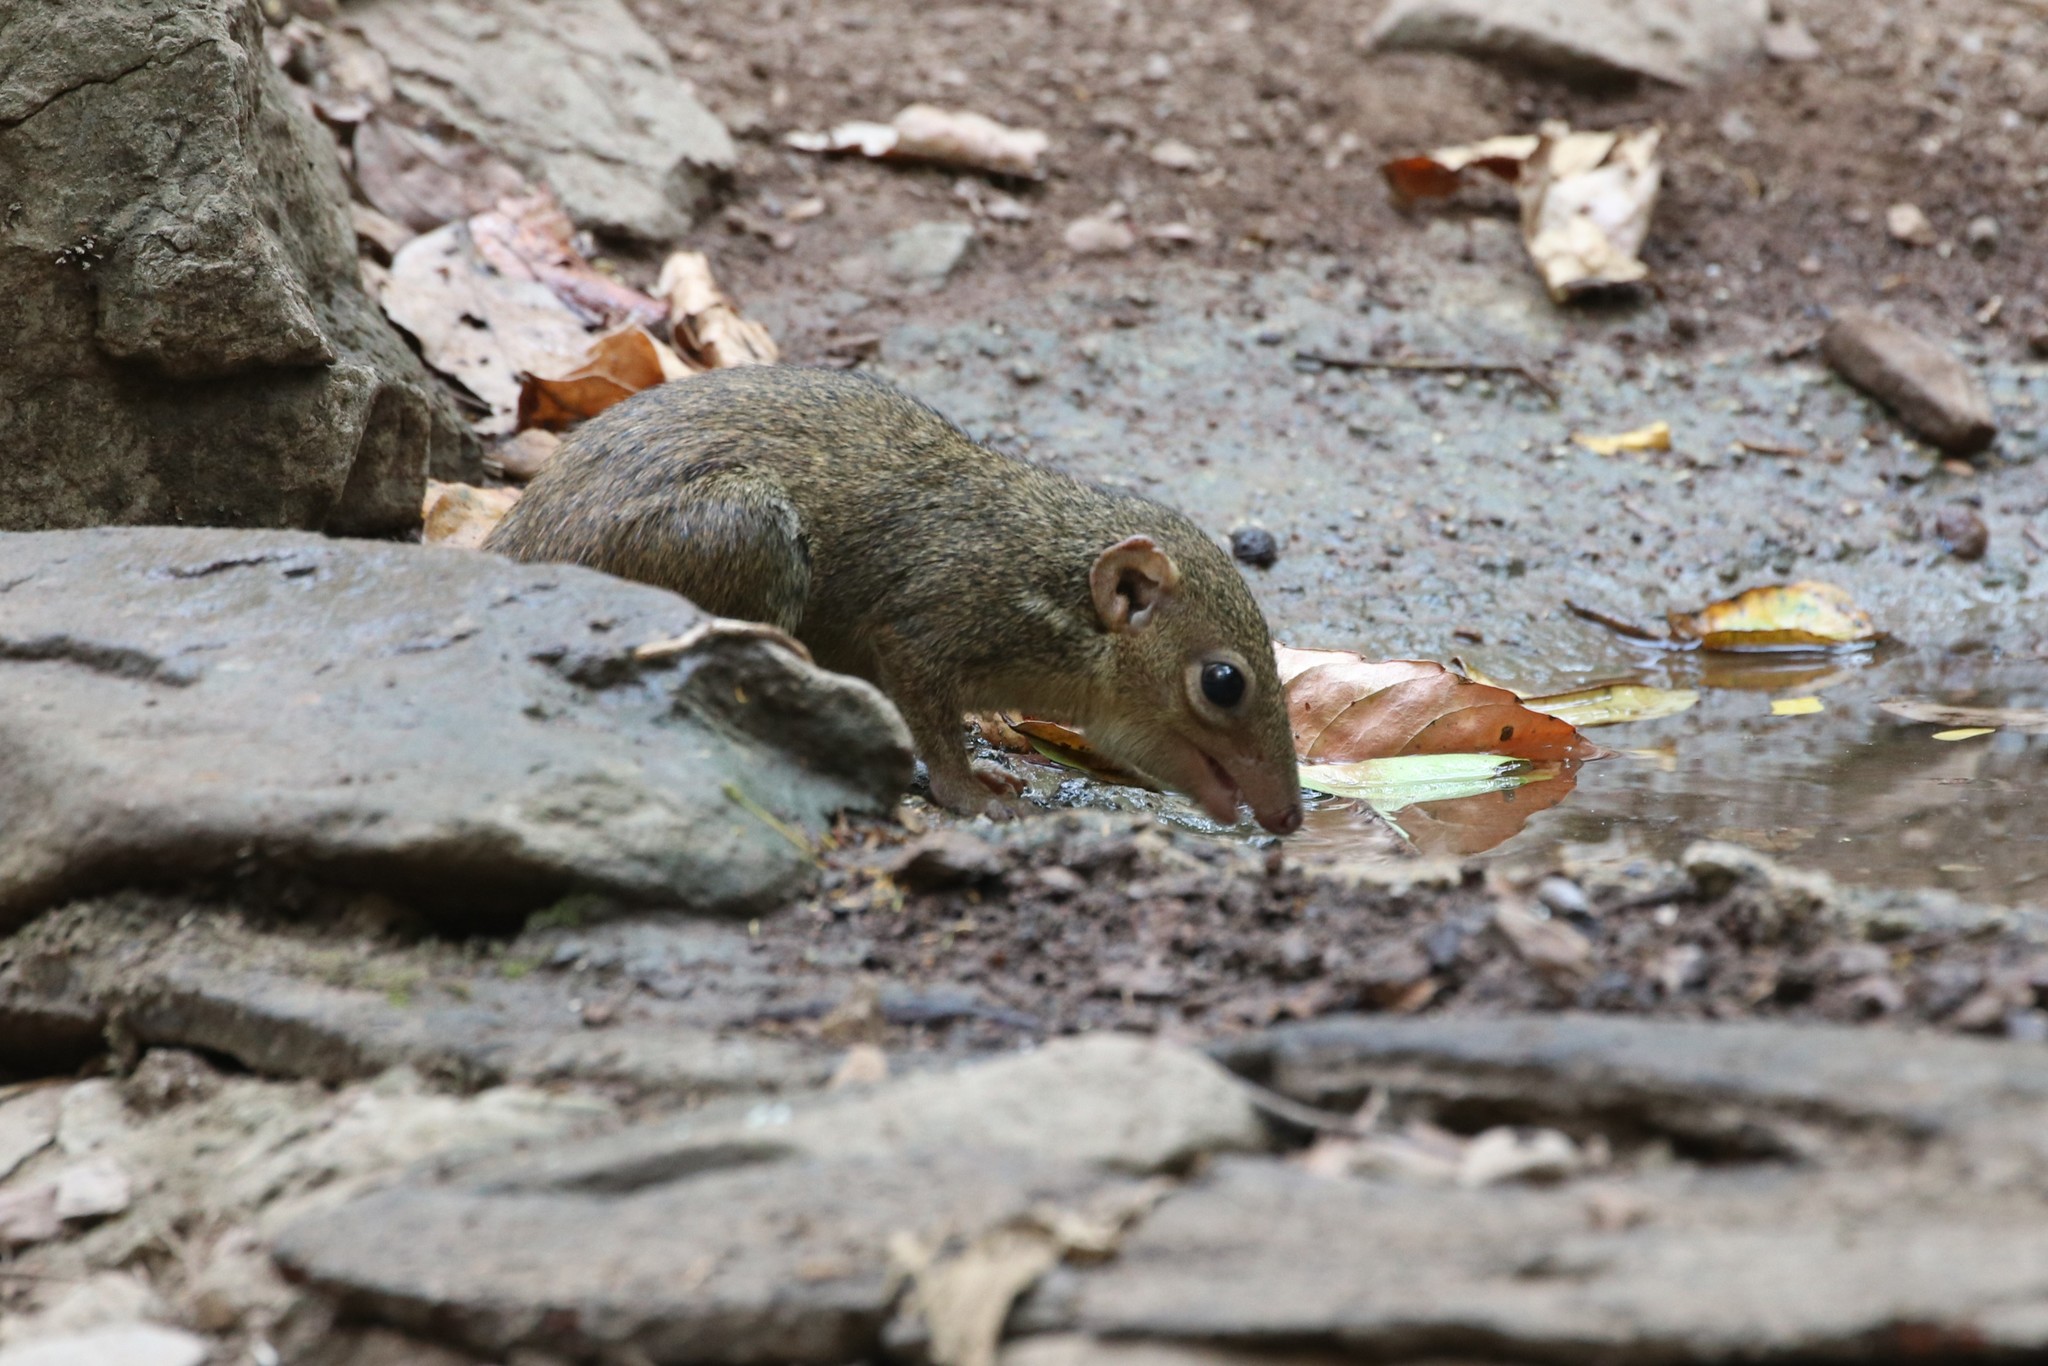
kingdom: Animalia
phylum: Chordata
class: Mammalia
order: Scandentia
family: Tupaiidae
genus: Tupaia
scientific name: Tupaia belangeri
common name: Northern treeshrew
